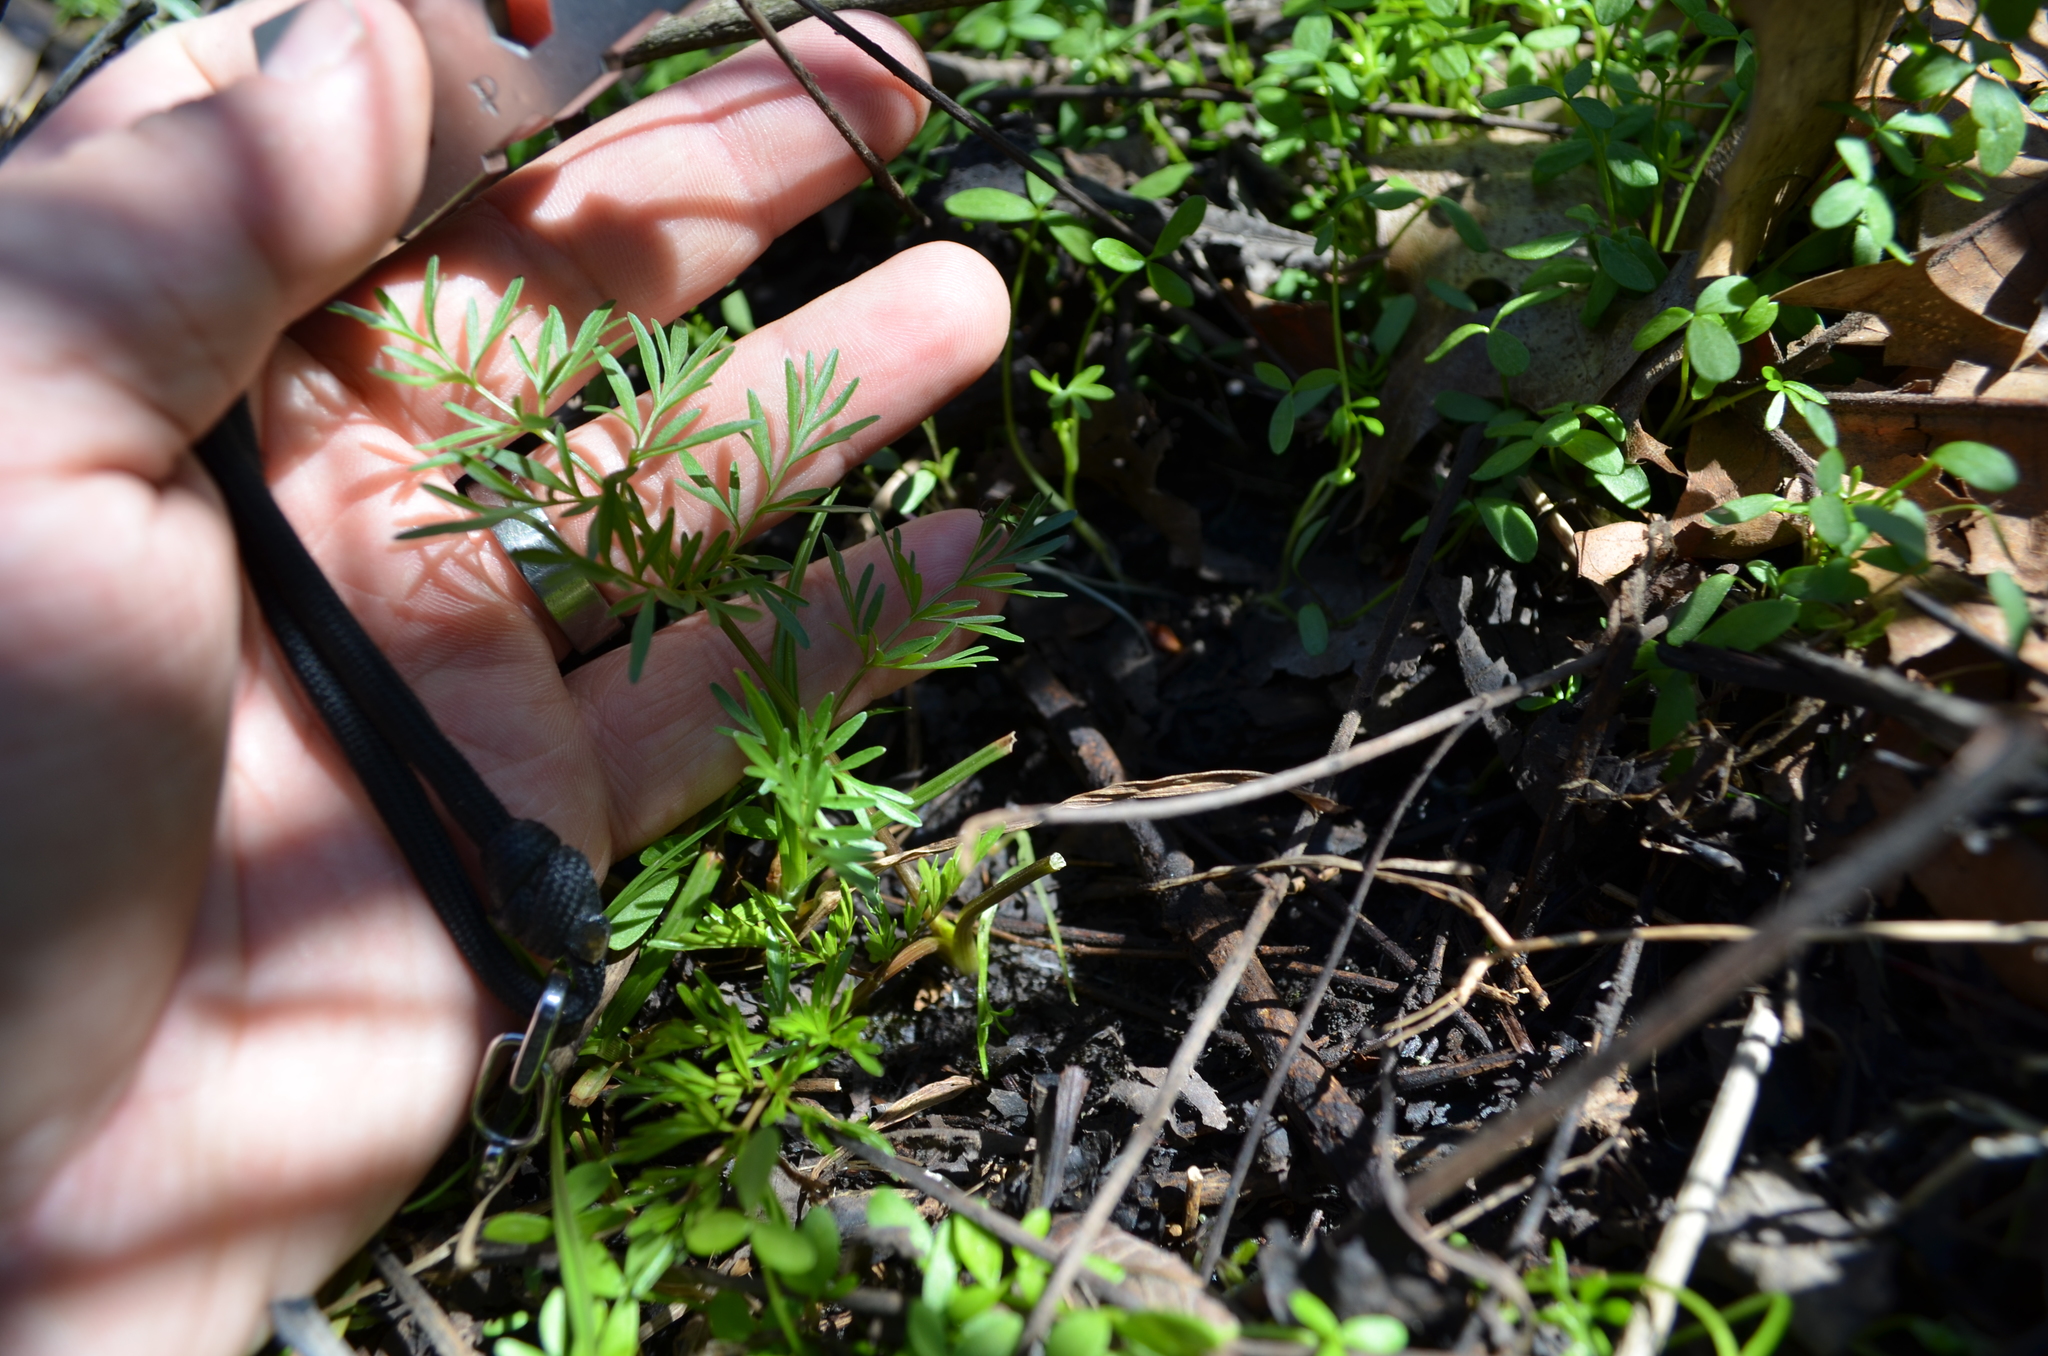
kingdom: Plantae
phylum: Tracheophyta
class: Magnoliopsida
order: Apiales
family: Apiaceae
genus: Perideridia
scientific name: Perideridia americana
